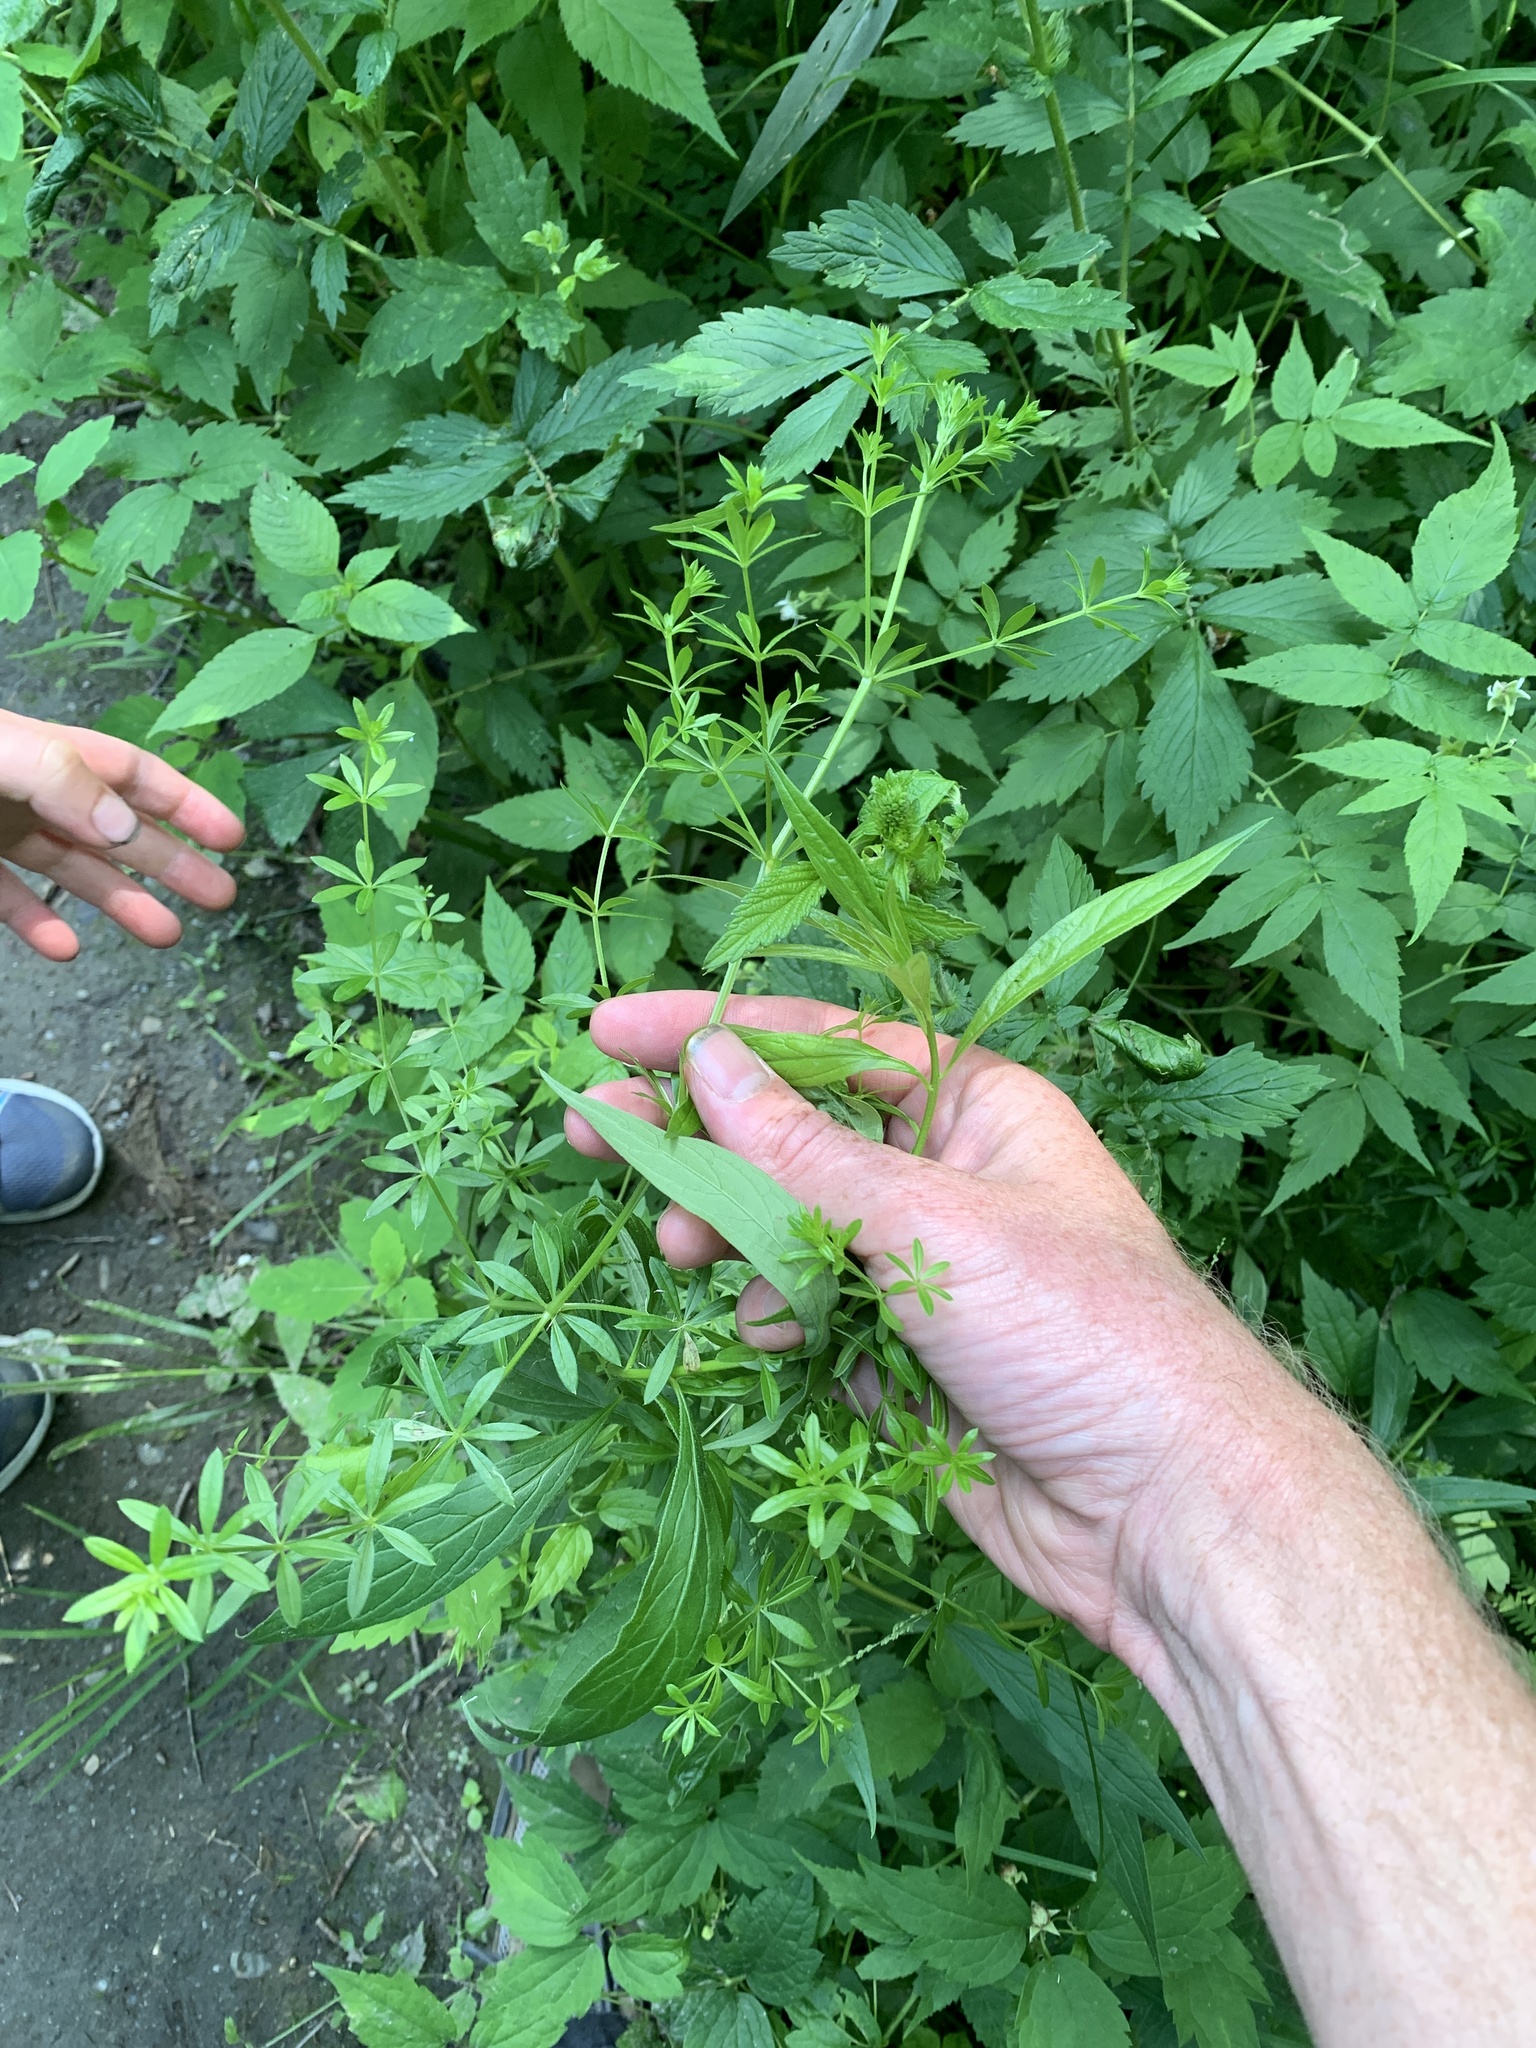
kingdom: Plantae
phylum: Tracheophyta
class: Magnoliopsida
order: Gentianales
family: Rubiaceae
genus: Galium
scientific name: Galium asprellum
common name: Rough bedstraw
